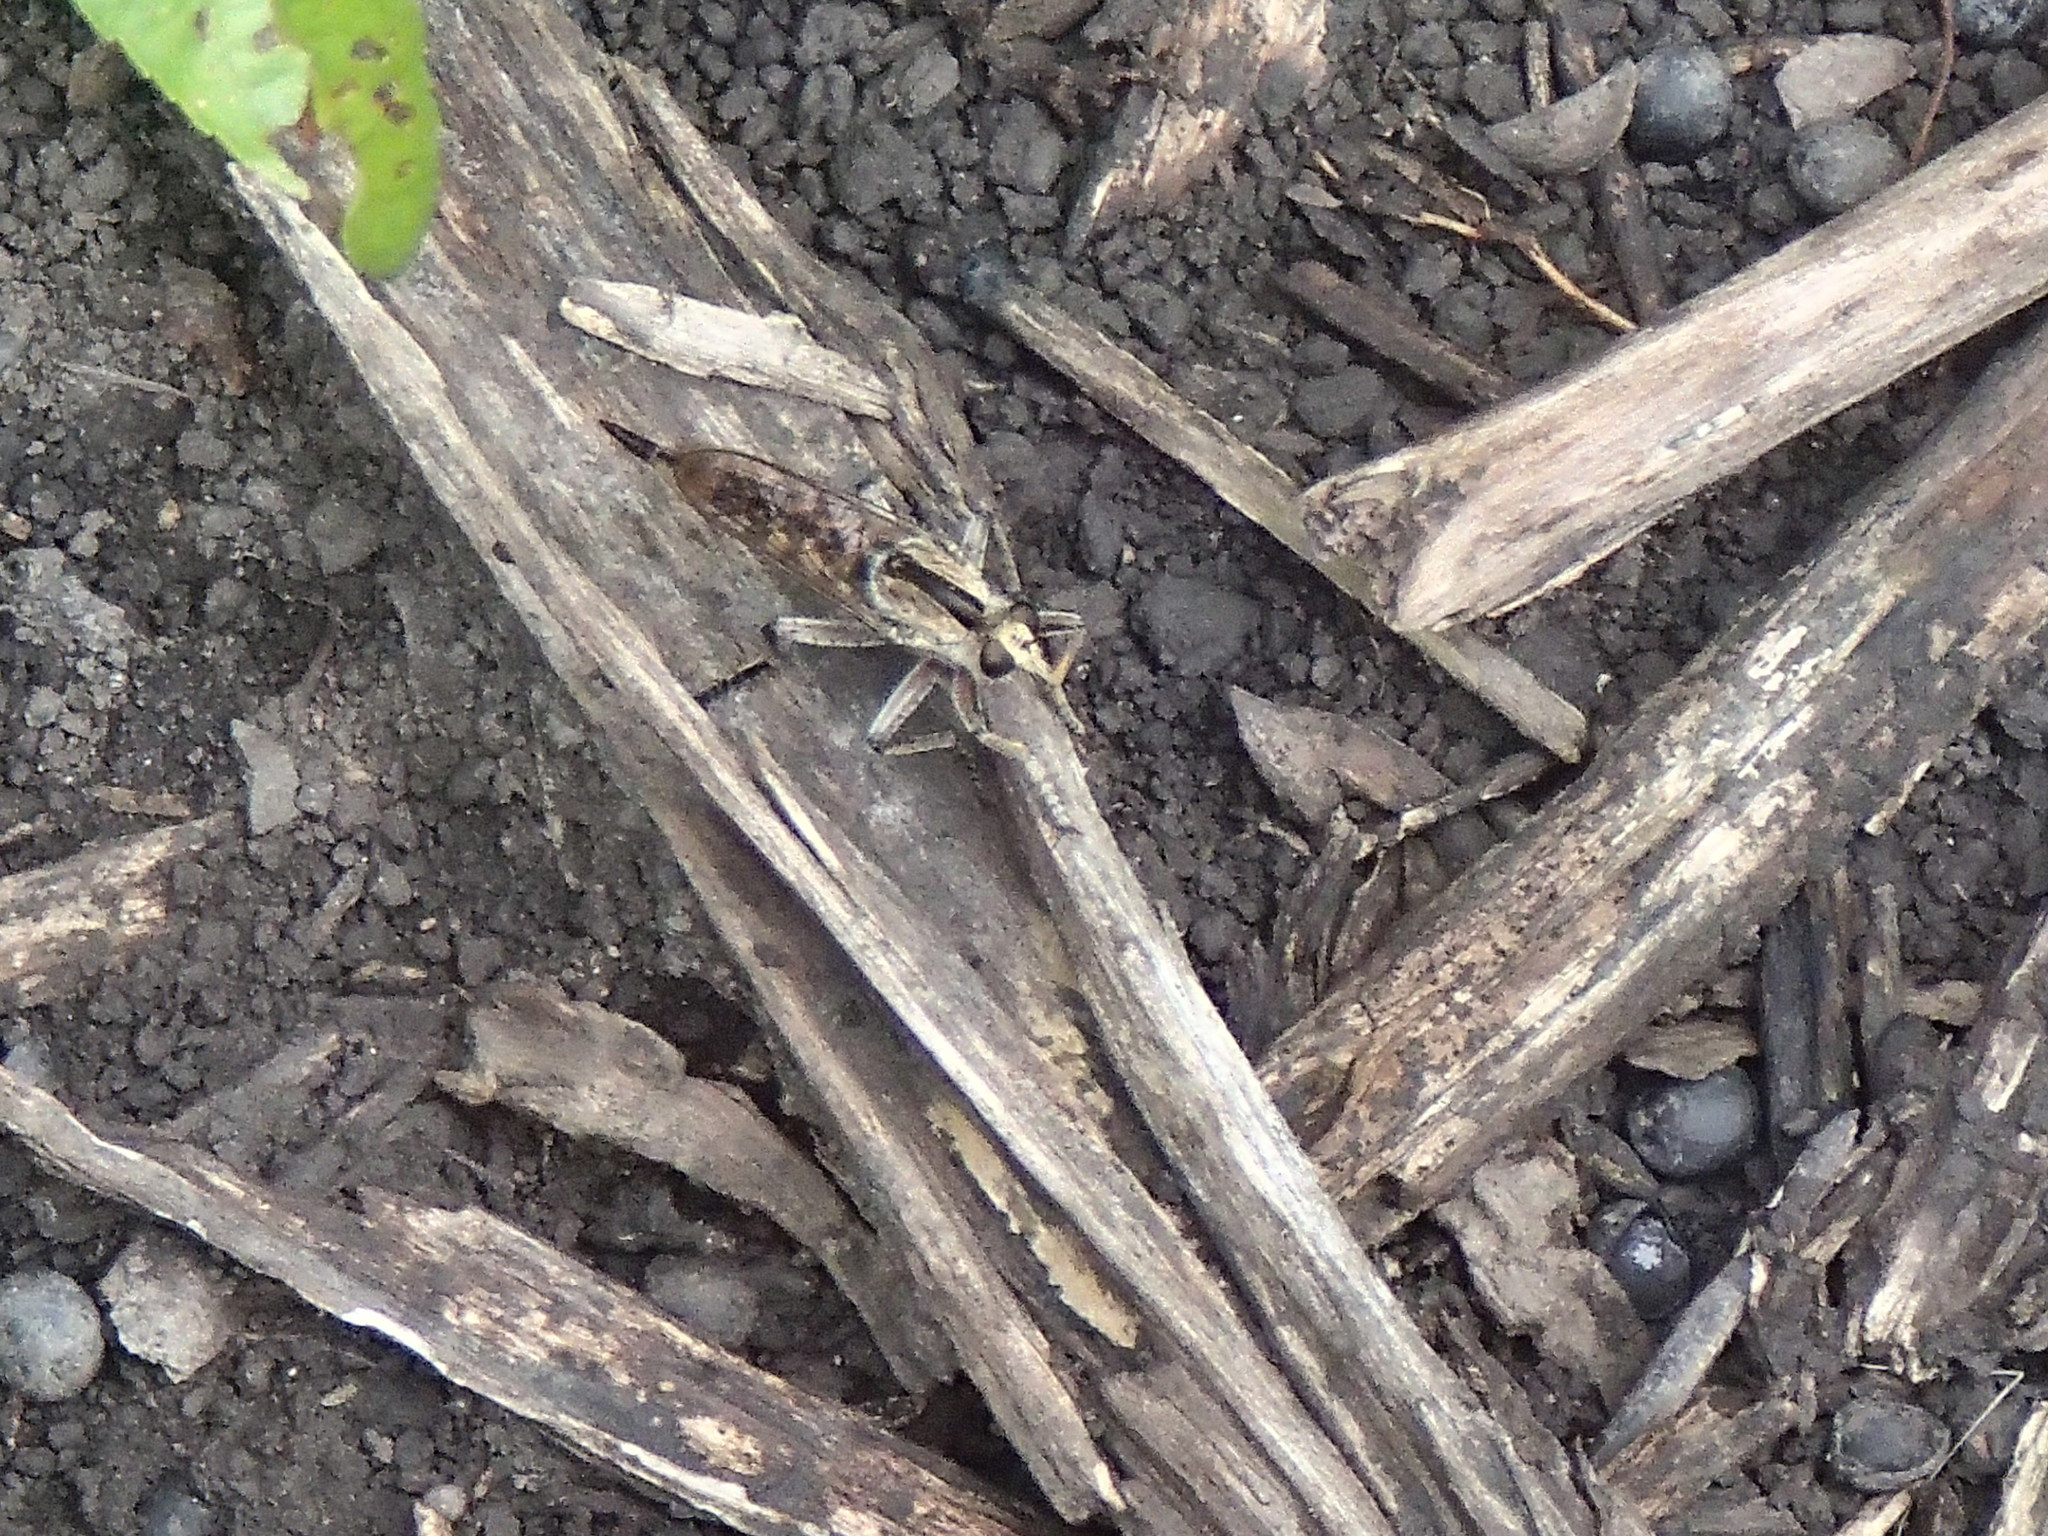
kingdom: Animalia
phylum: Arthropoda
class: Insecta
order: Diptera
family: Asilidae
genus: Triorla
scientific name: Triorla interrupta
